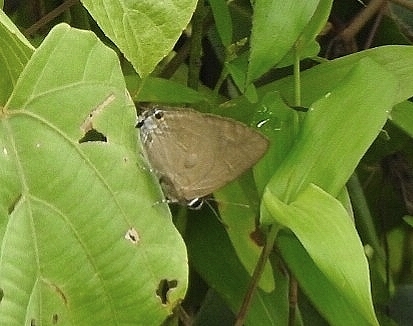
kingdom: Animalia
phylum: Arthropoda
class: Insecta
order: Lepidoptera
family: Lycaenidae
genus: Rapala
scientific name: Rapala manea
